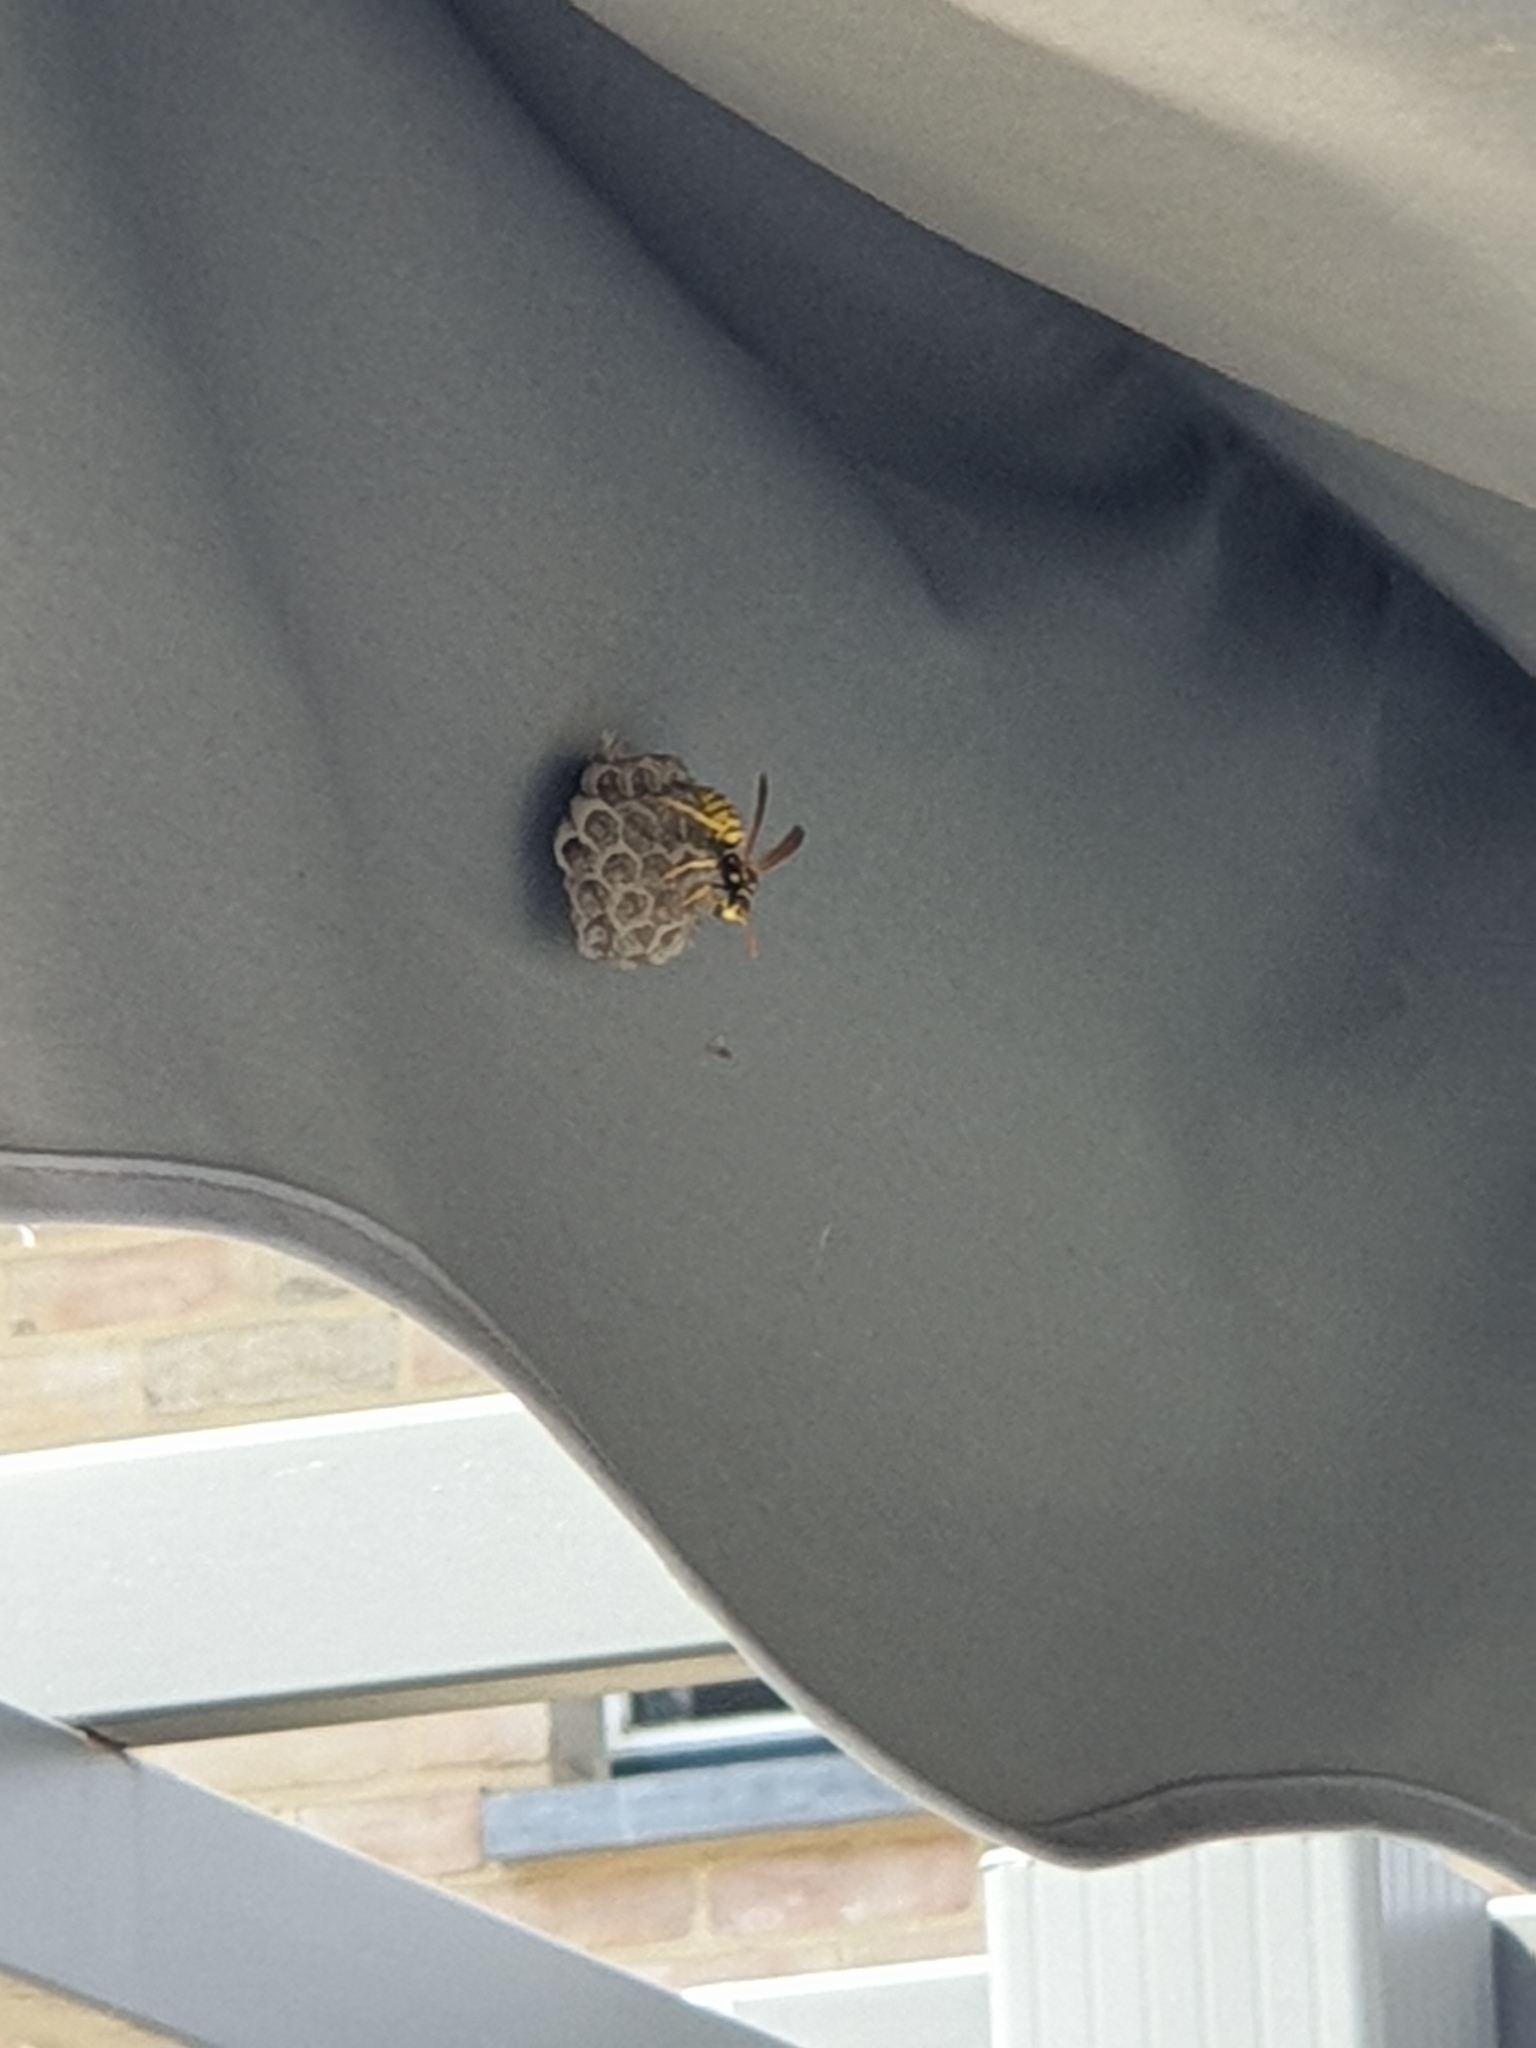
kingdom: Animalia
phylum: Arthropoda
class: Insecta
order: Hymenoptera
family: Eumenidae
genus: Polistes
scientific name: Polistes dominula
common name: Paper wasp
